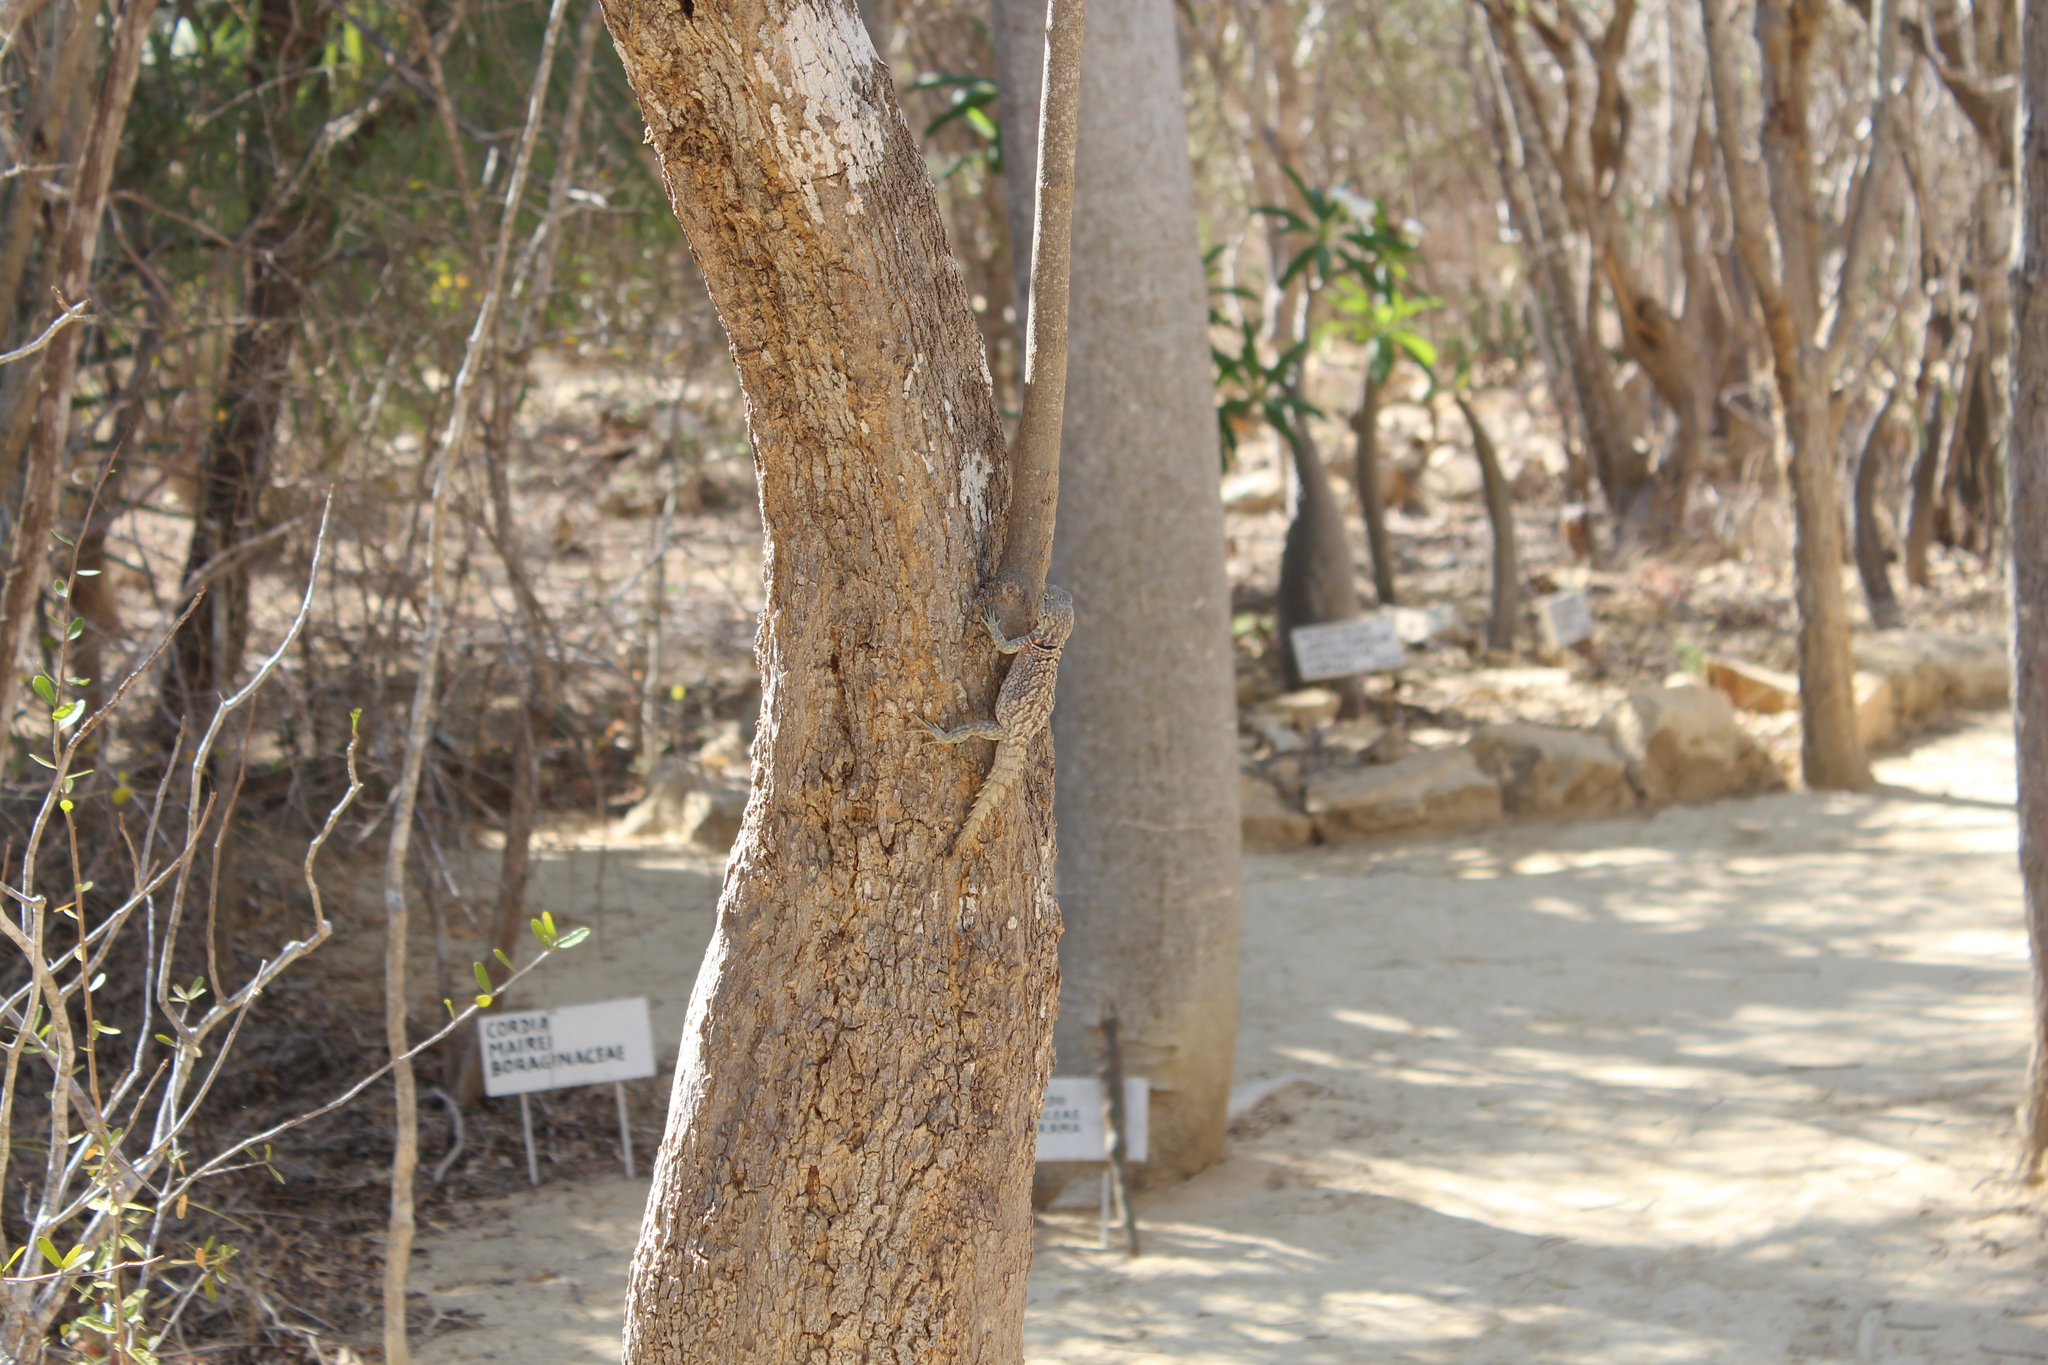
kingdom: Animalia
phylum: Chordata
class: Squamata
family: Opluridae
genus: Oplurus
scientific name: Oplurus cyclurus
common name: Merrem's madagascar swift
